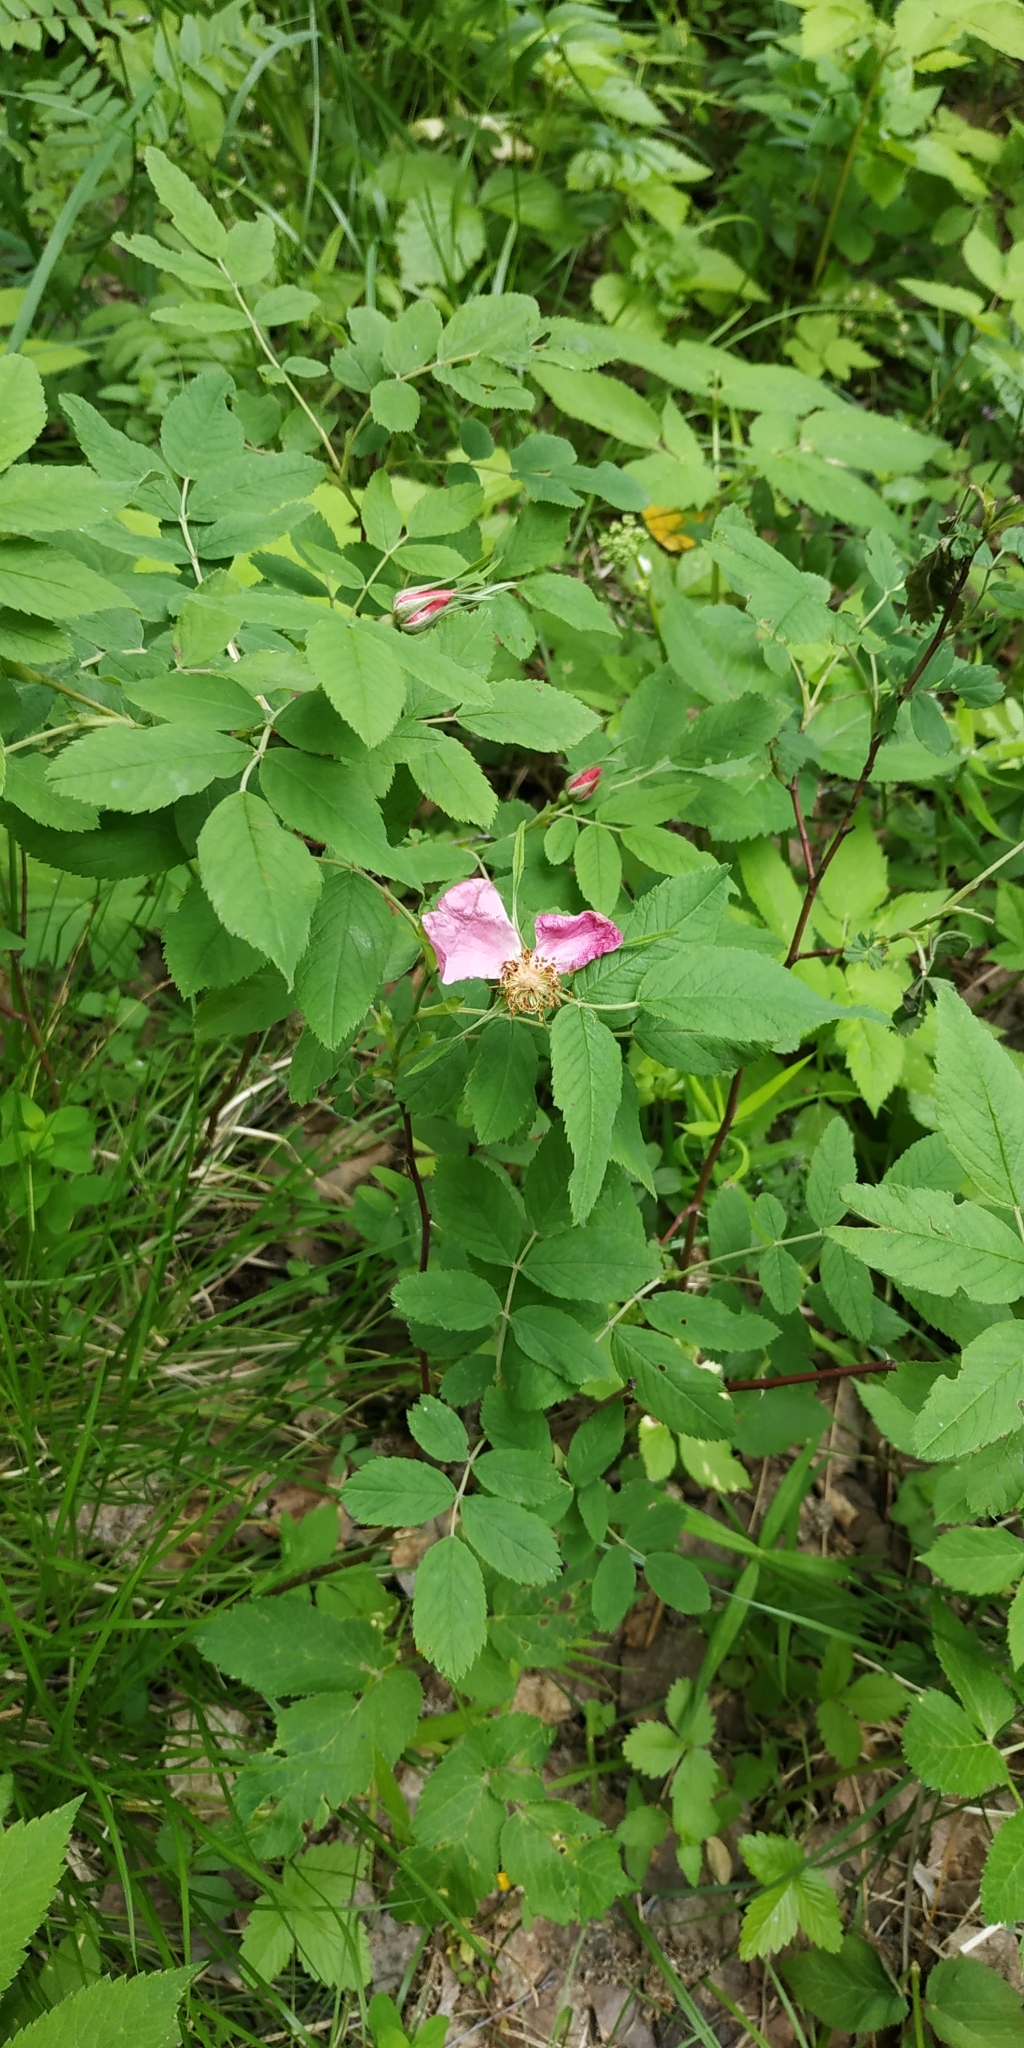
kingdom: Plantae
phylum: Tracheophyta
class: Magnoliopsida
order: Rosales
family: Rosaceae
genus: Rosa
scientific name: Rosa acicularis
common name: Prickly rose
